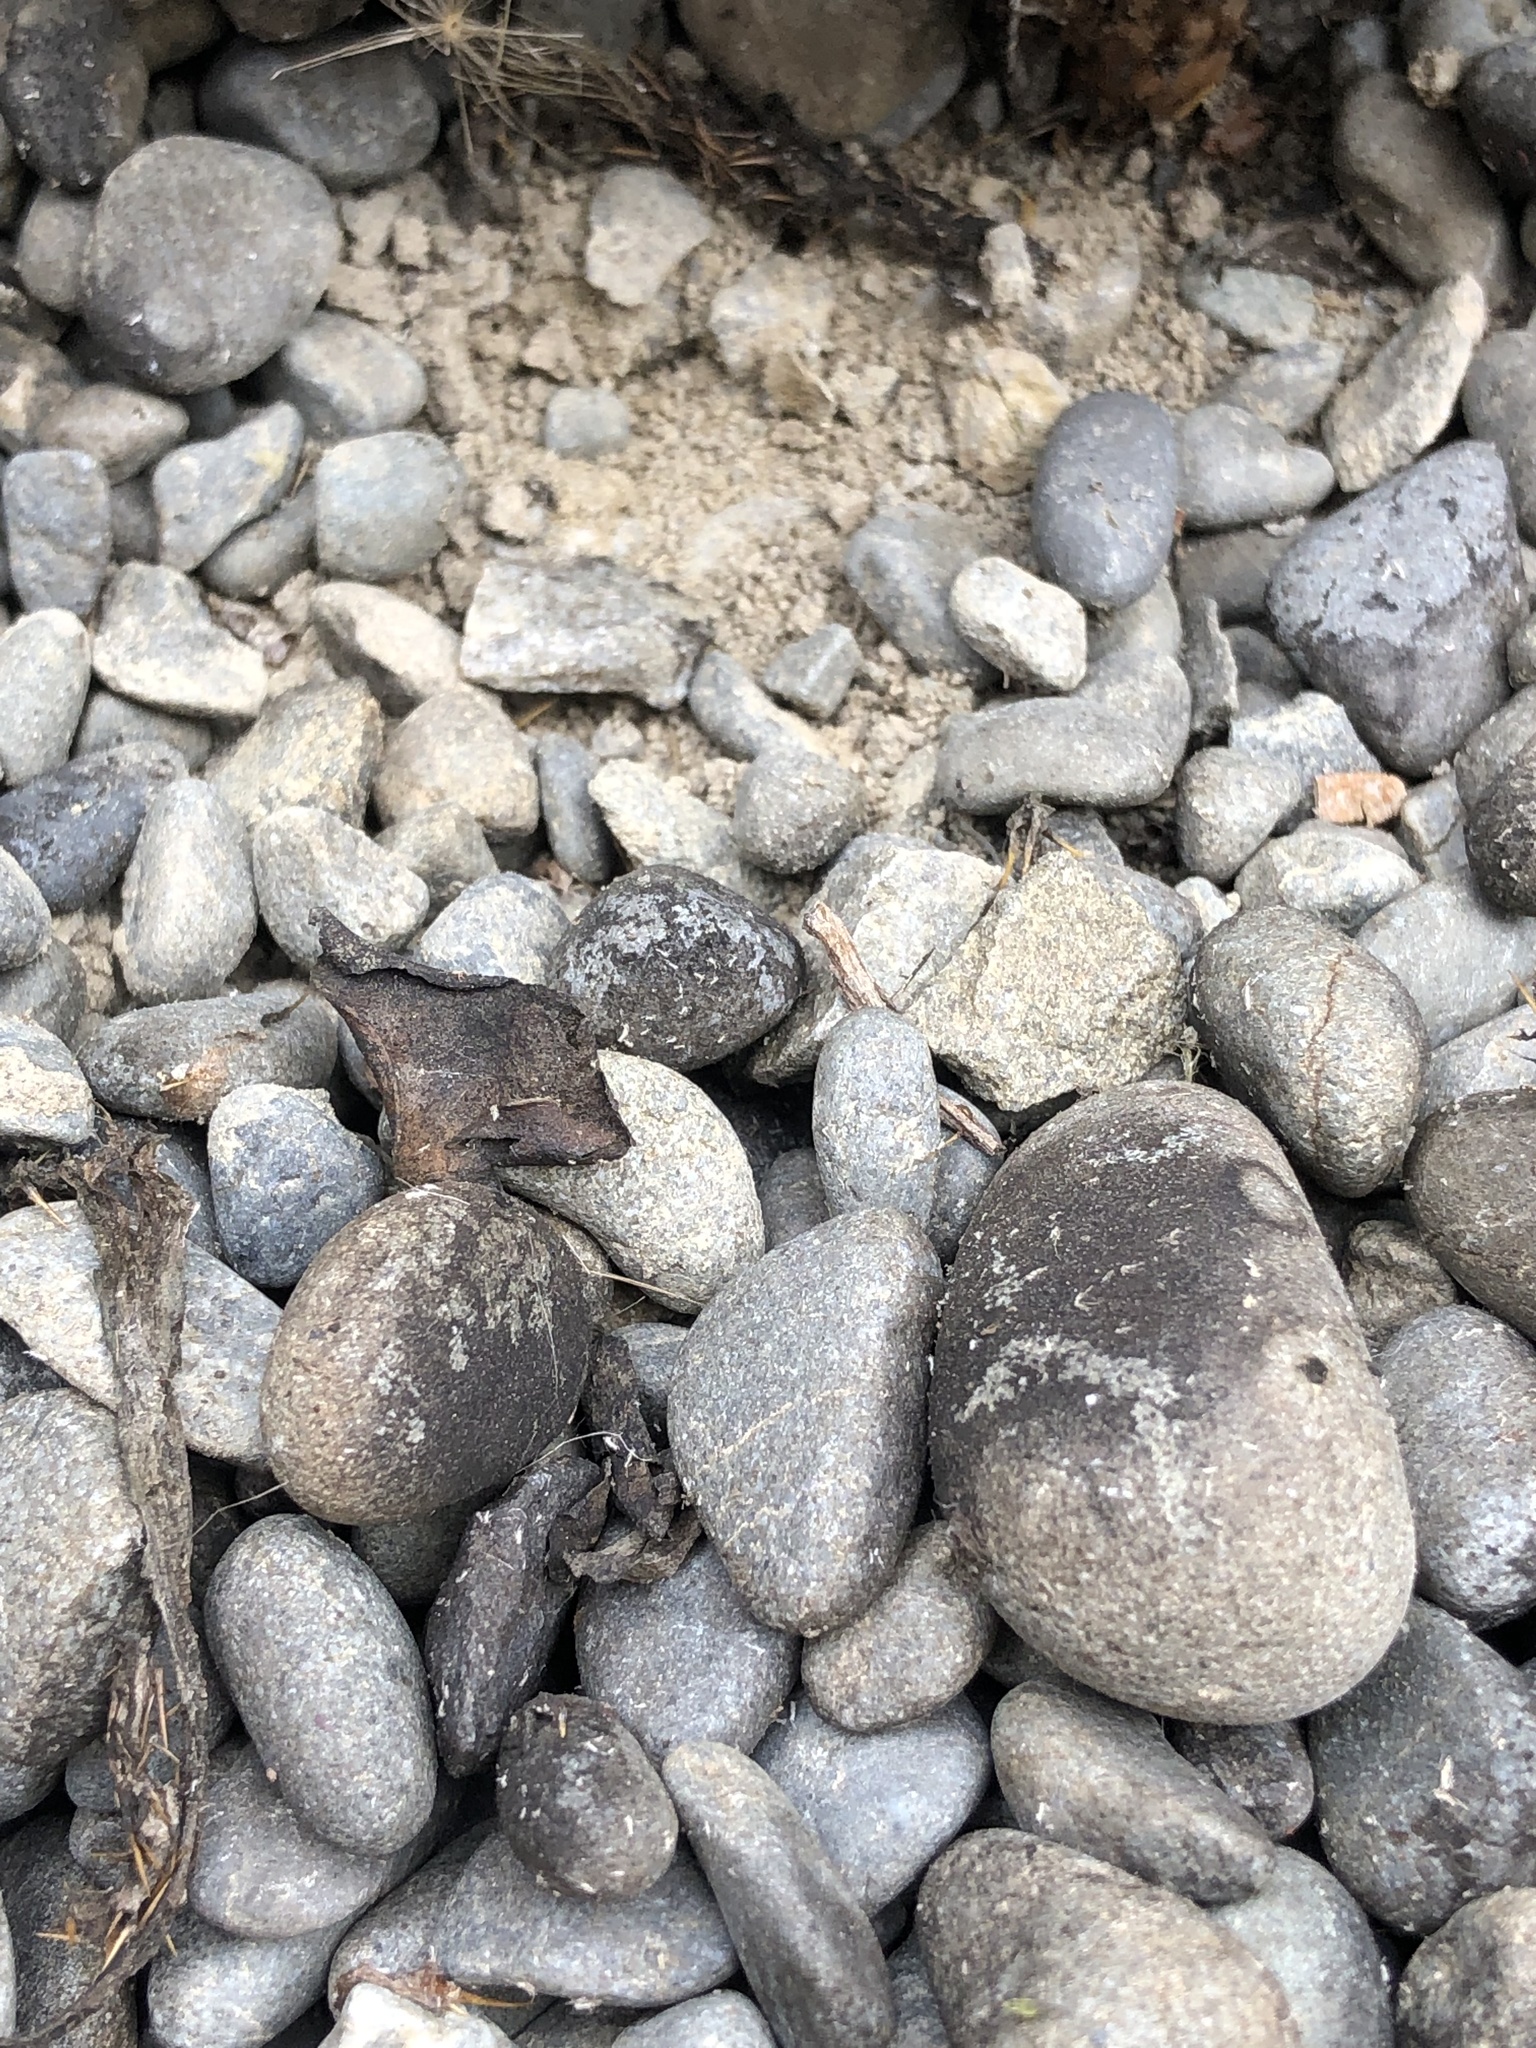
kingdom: Plantae
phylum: Tracheophyta
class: Magnoliopsida
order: Asterales
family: Asteraceae
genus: Cirsium
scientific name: Cirsium arvense
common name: Creeping thistle
